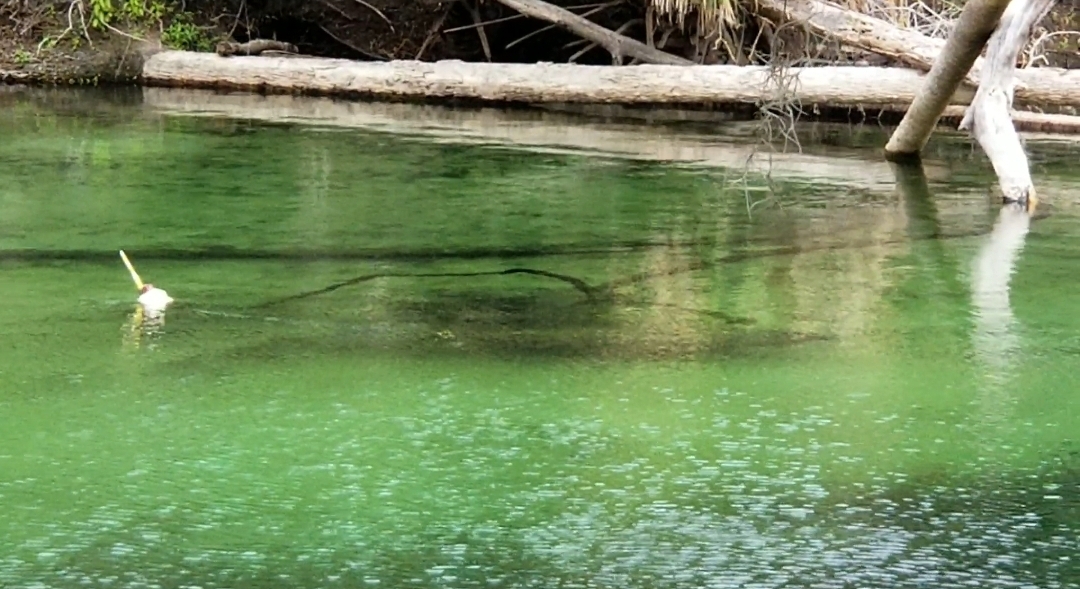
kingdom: Animalia
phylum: Chordata
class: Mammalia
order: Sirenia
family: Trichechidae
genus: Trichechus
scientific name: Trichechus manatus
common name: West indian manatee
